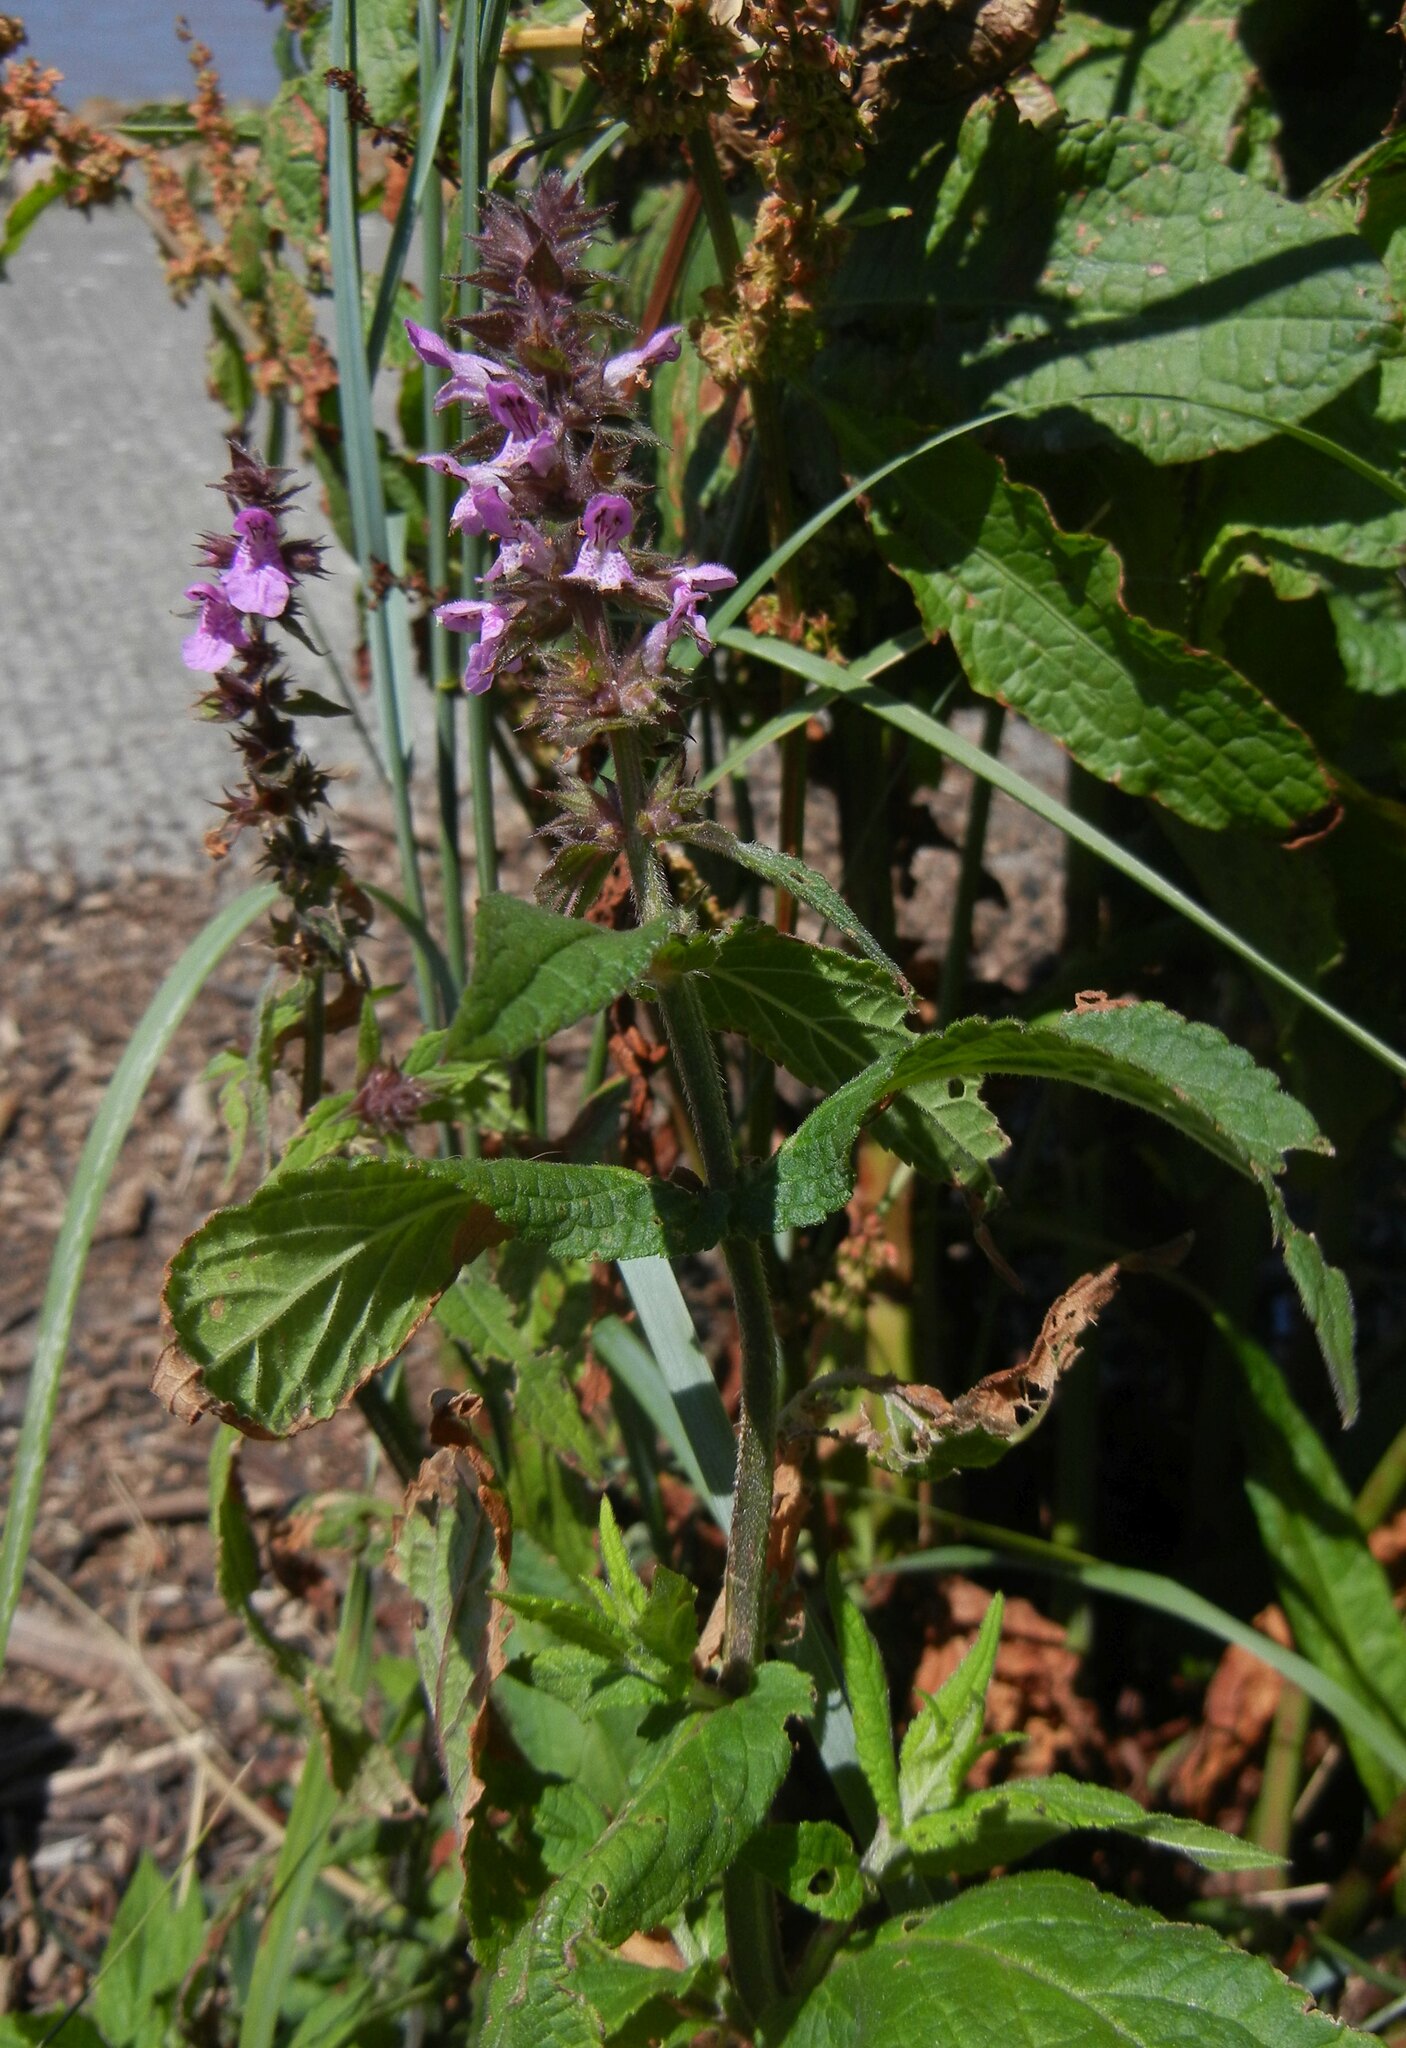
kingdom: Plantae
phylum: Tracheophyta
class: Magnoliopsida
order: Lamiales
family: Lamiaceae
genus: Stachys
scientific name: Stachys palustris
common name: Marsh woundwort
